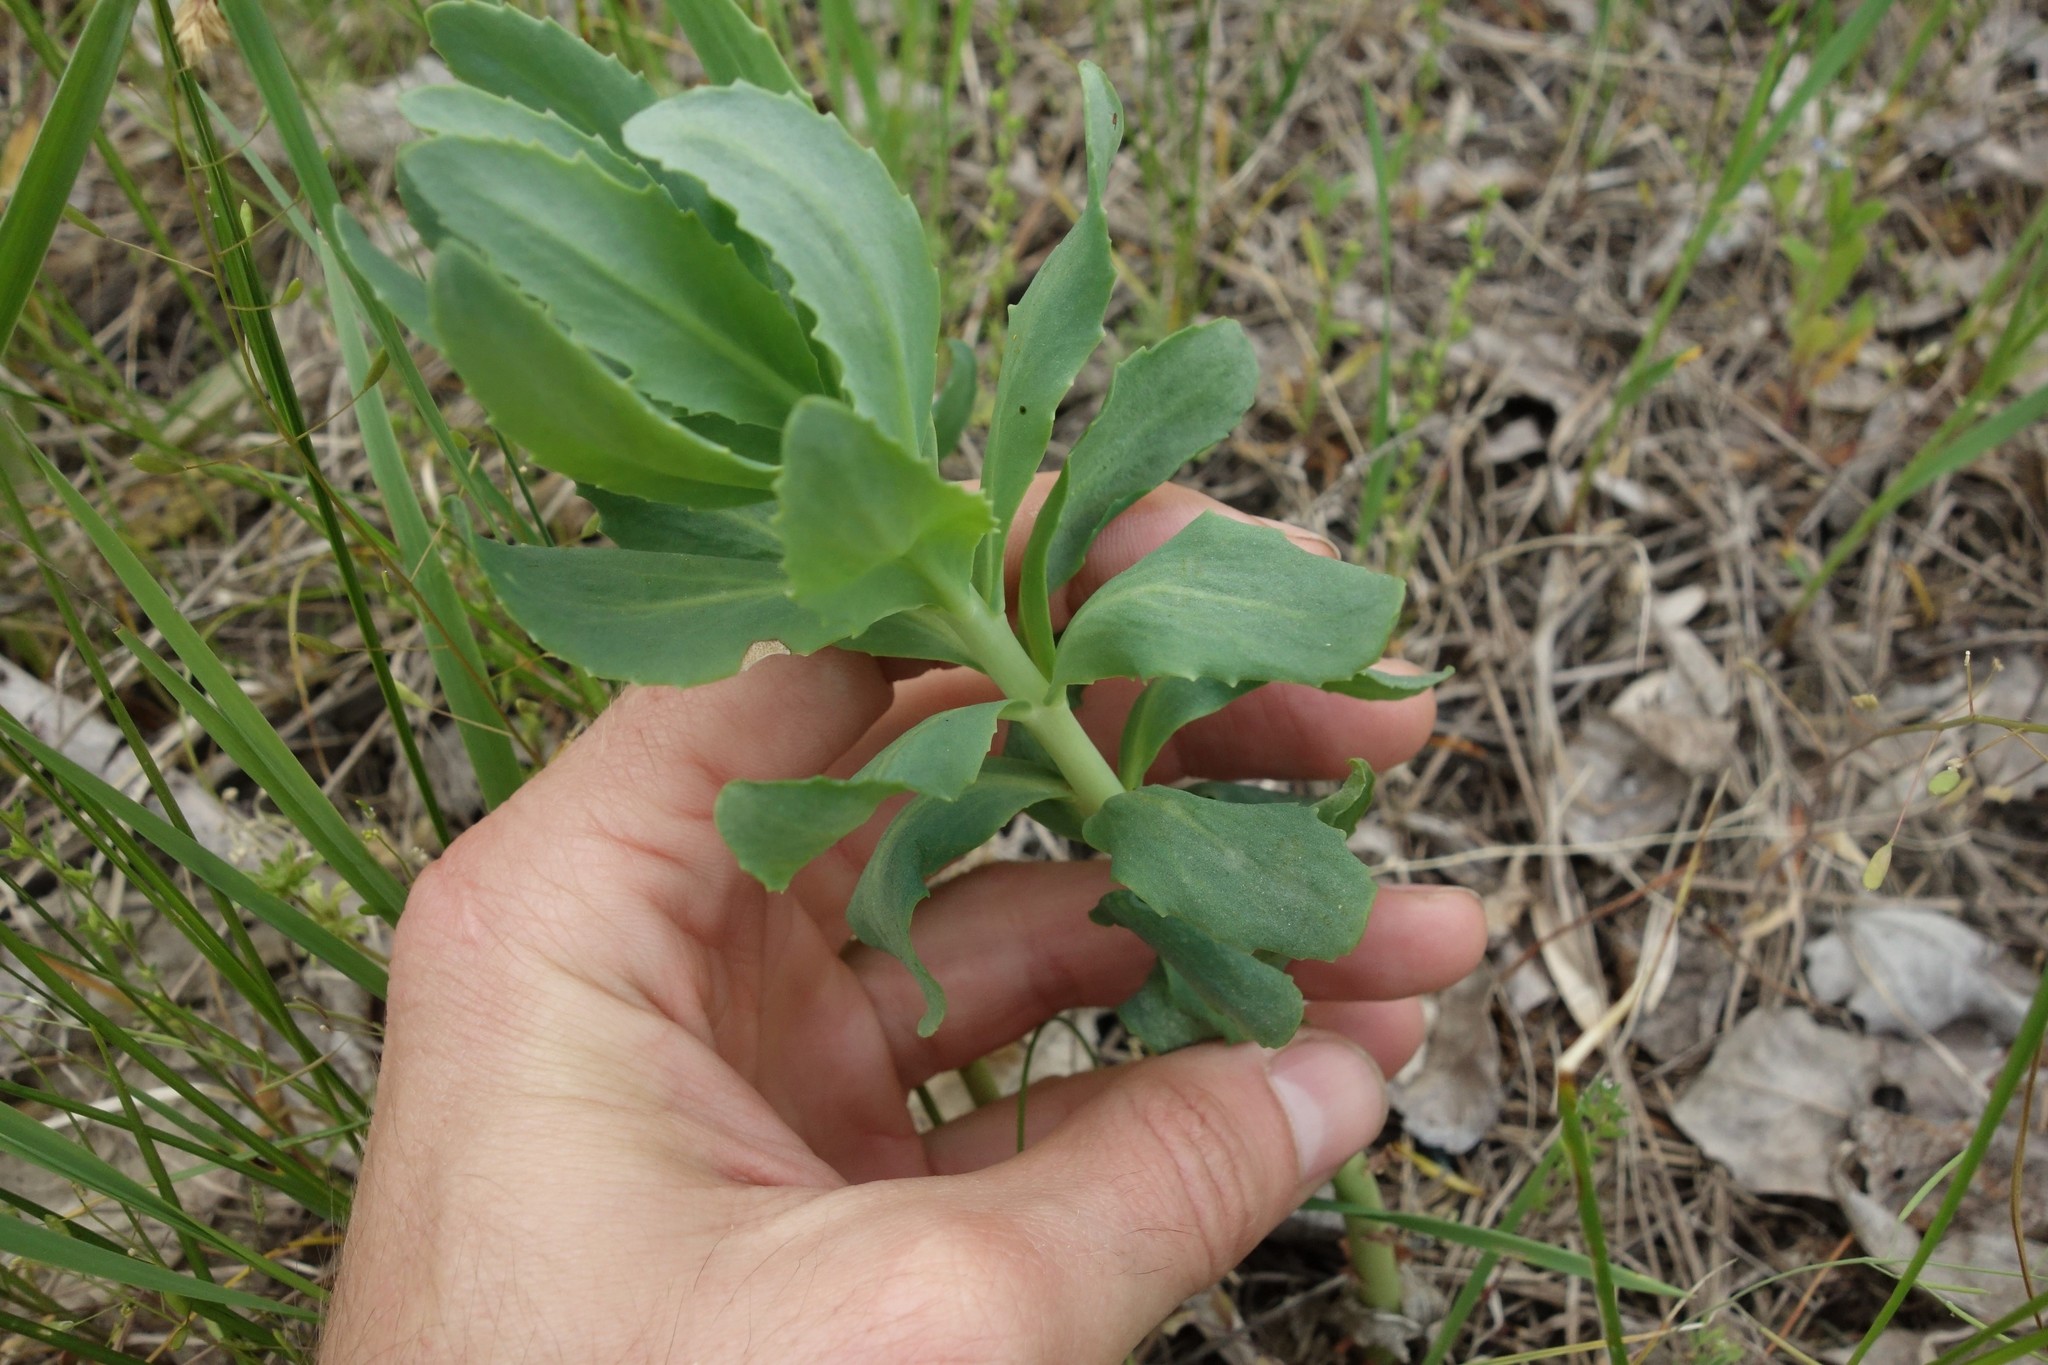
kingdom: Plantae
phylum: Tracheophyta
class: Magnoliopsida
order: Saxifragales
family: Crassulaceae
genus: Hylotelephium
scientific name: Hylotelephium telephium
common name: Live-forever
